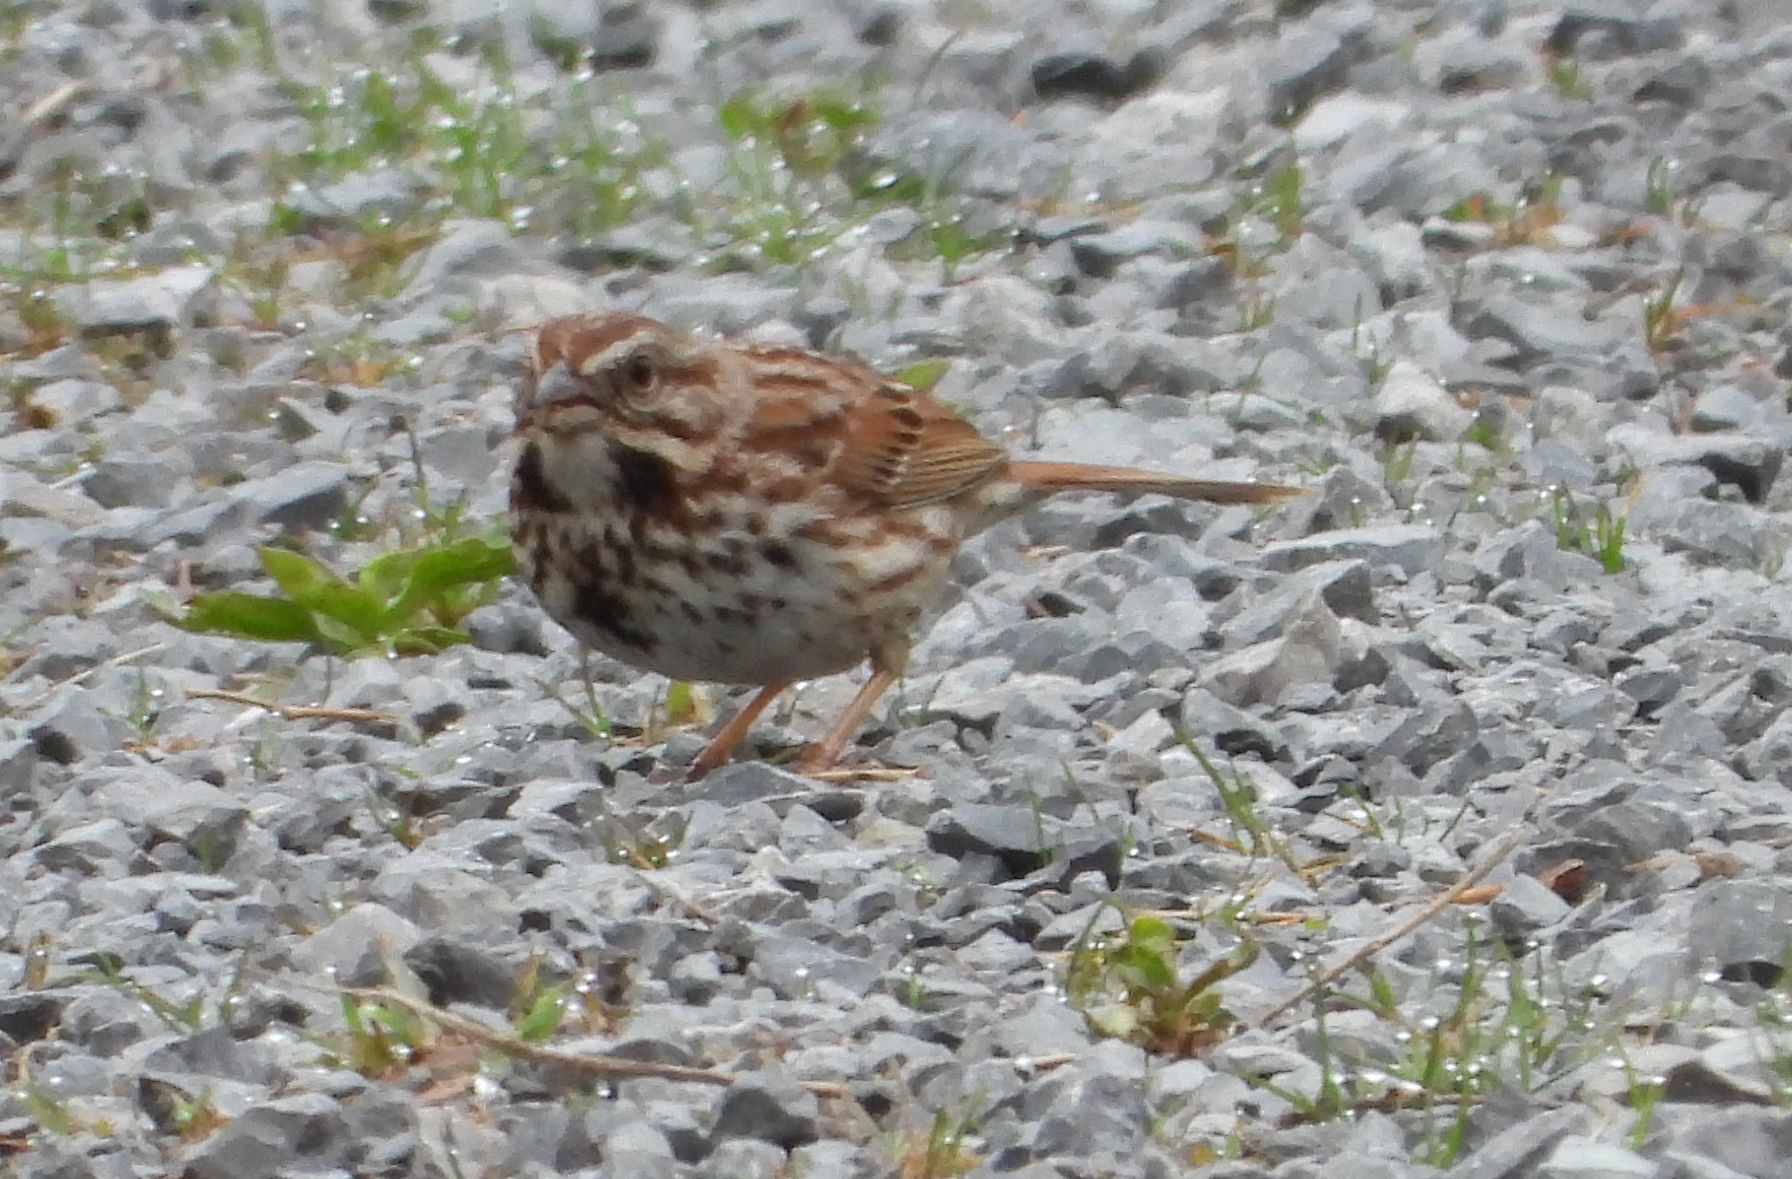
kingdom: Animalia
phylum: Chordata
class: Aves
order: Passeriformes
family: Passerellidae
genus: Melospiza
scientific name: Melospiza melodia
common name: Song sparrow
